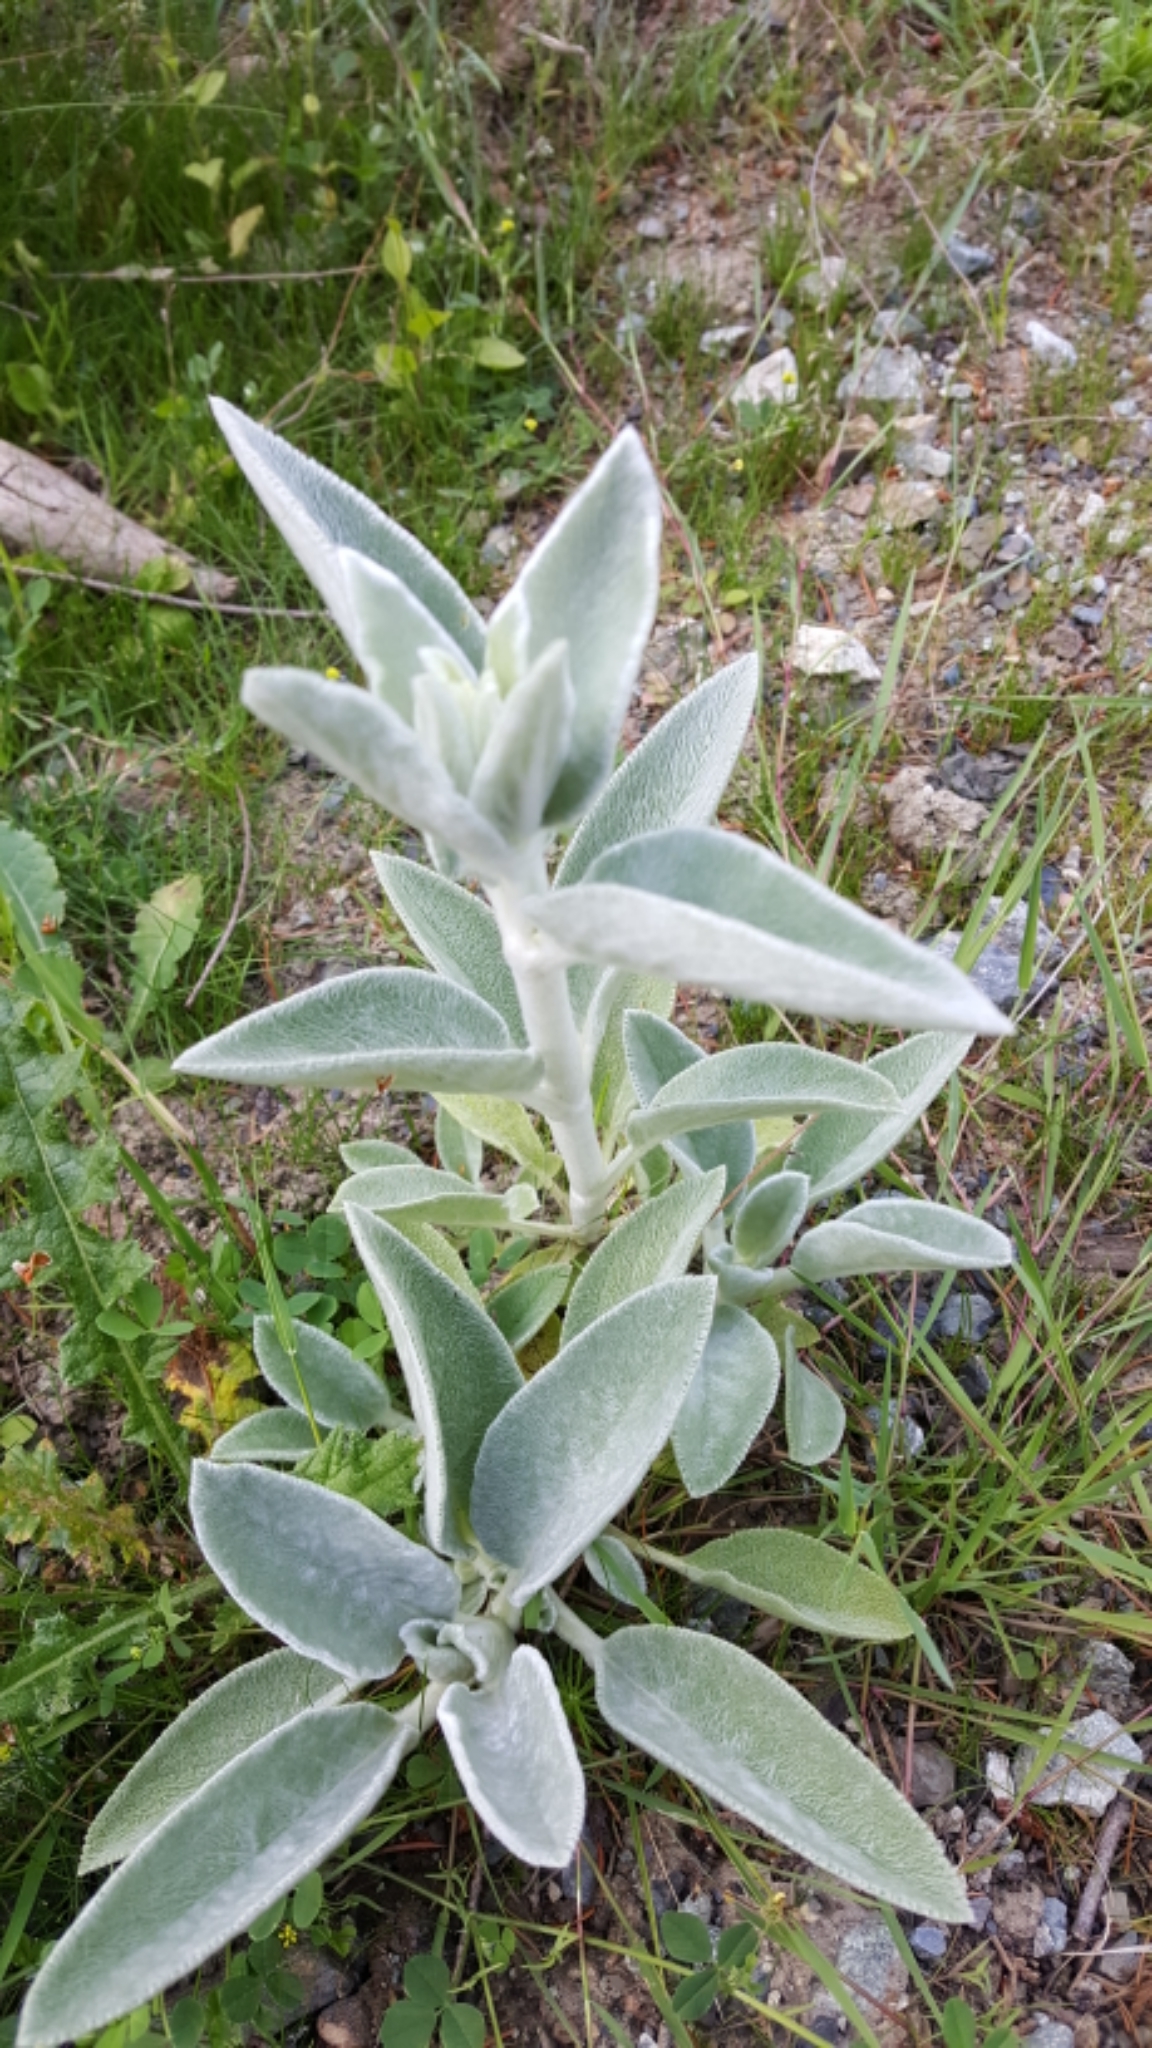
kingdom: Plantae
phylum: Tracheophyta
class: Magnoliopsida
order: Lamiales
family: Lamiaceae
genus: Stachys
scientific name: Stachys byzantina
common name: Lamb's-ear
